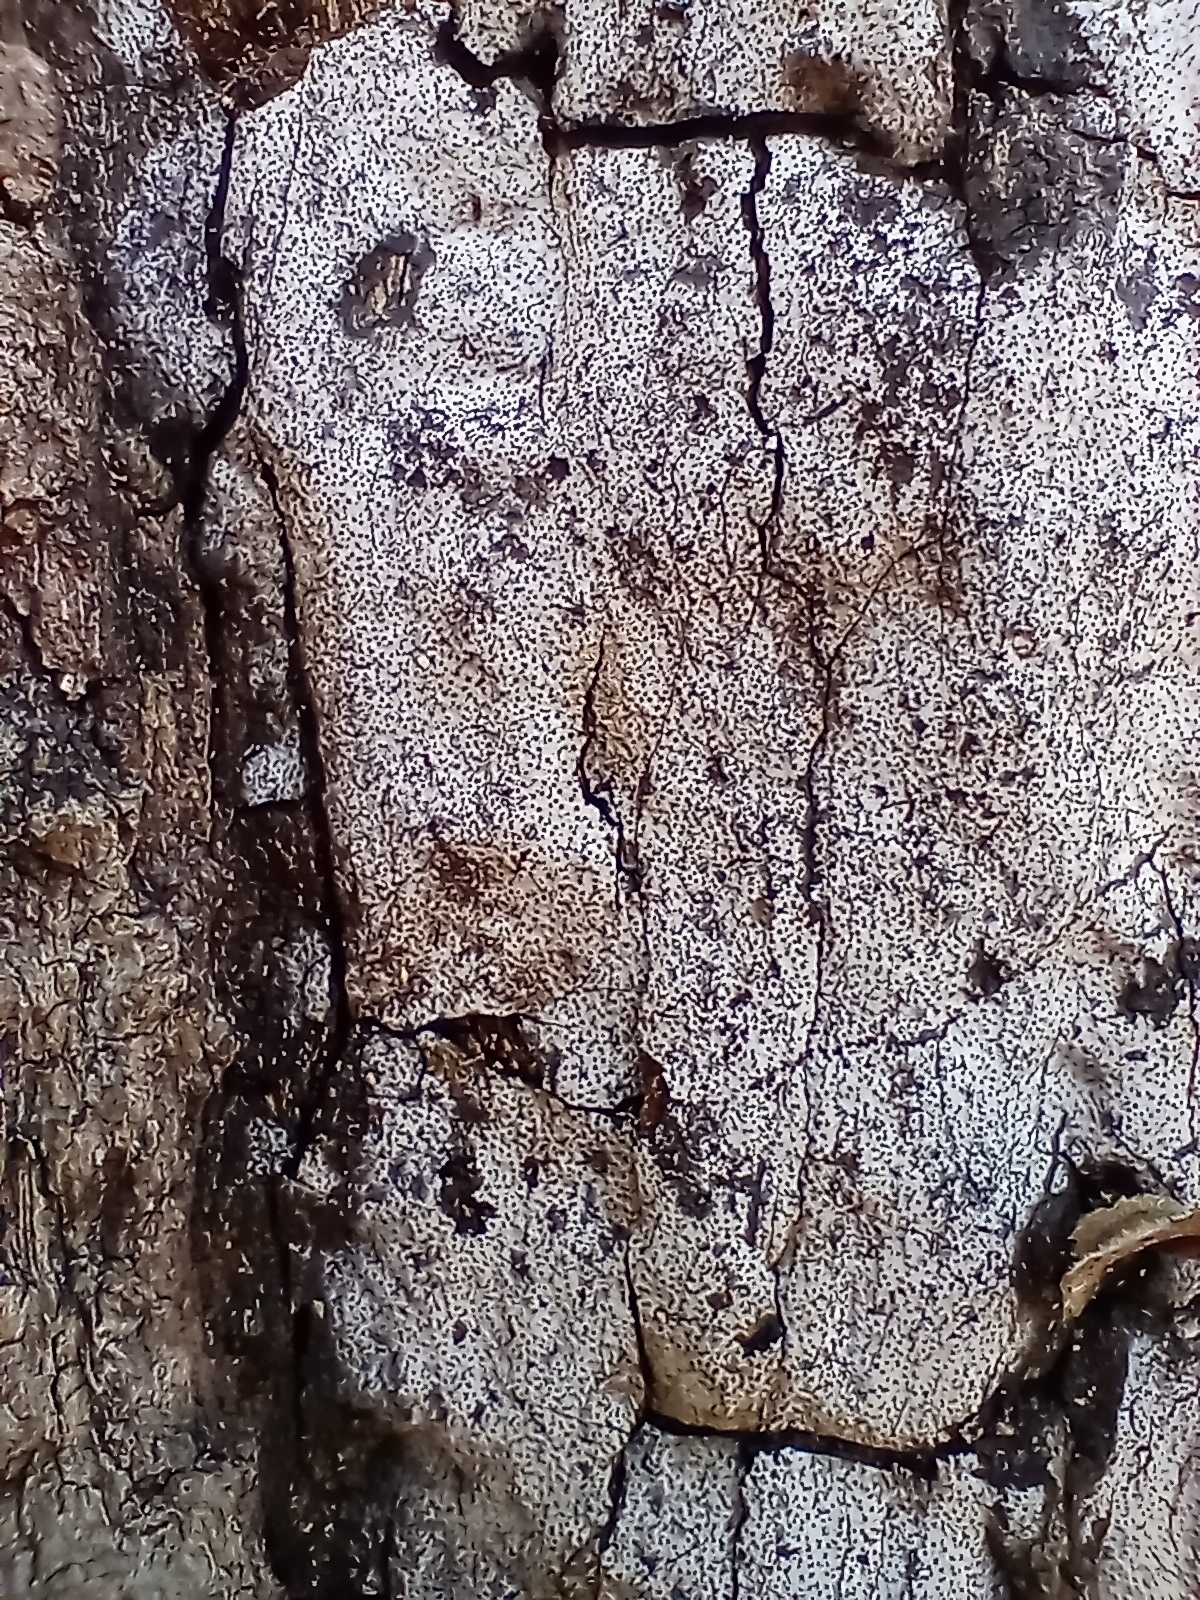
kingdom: Fungi
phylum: Ascomycota
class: Sordariomycetes
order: Xylariales
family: Graphostromataceae
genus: Biscogniauxia
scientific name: Biscogniauxia atropunctata
